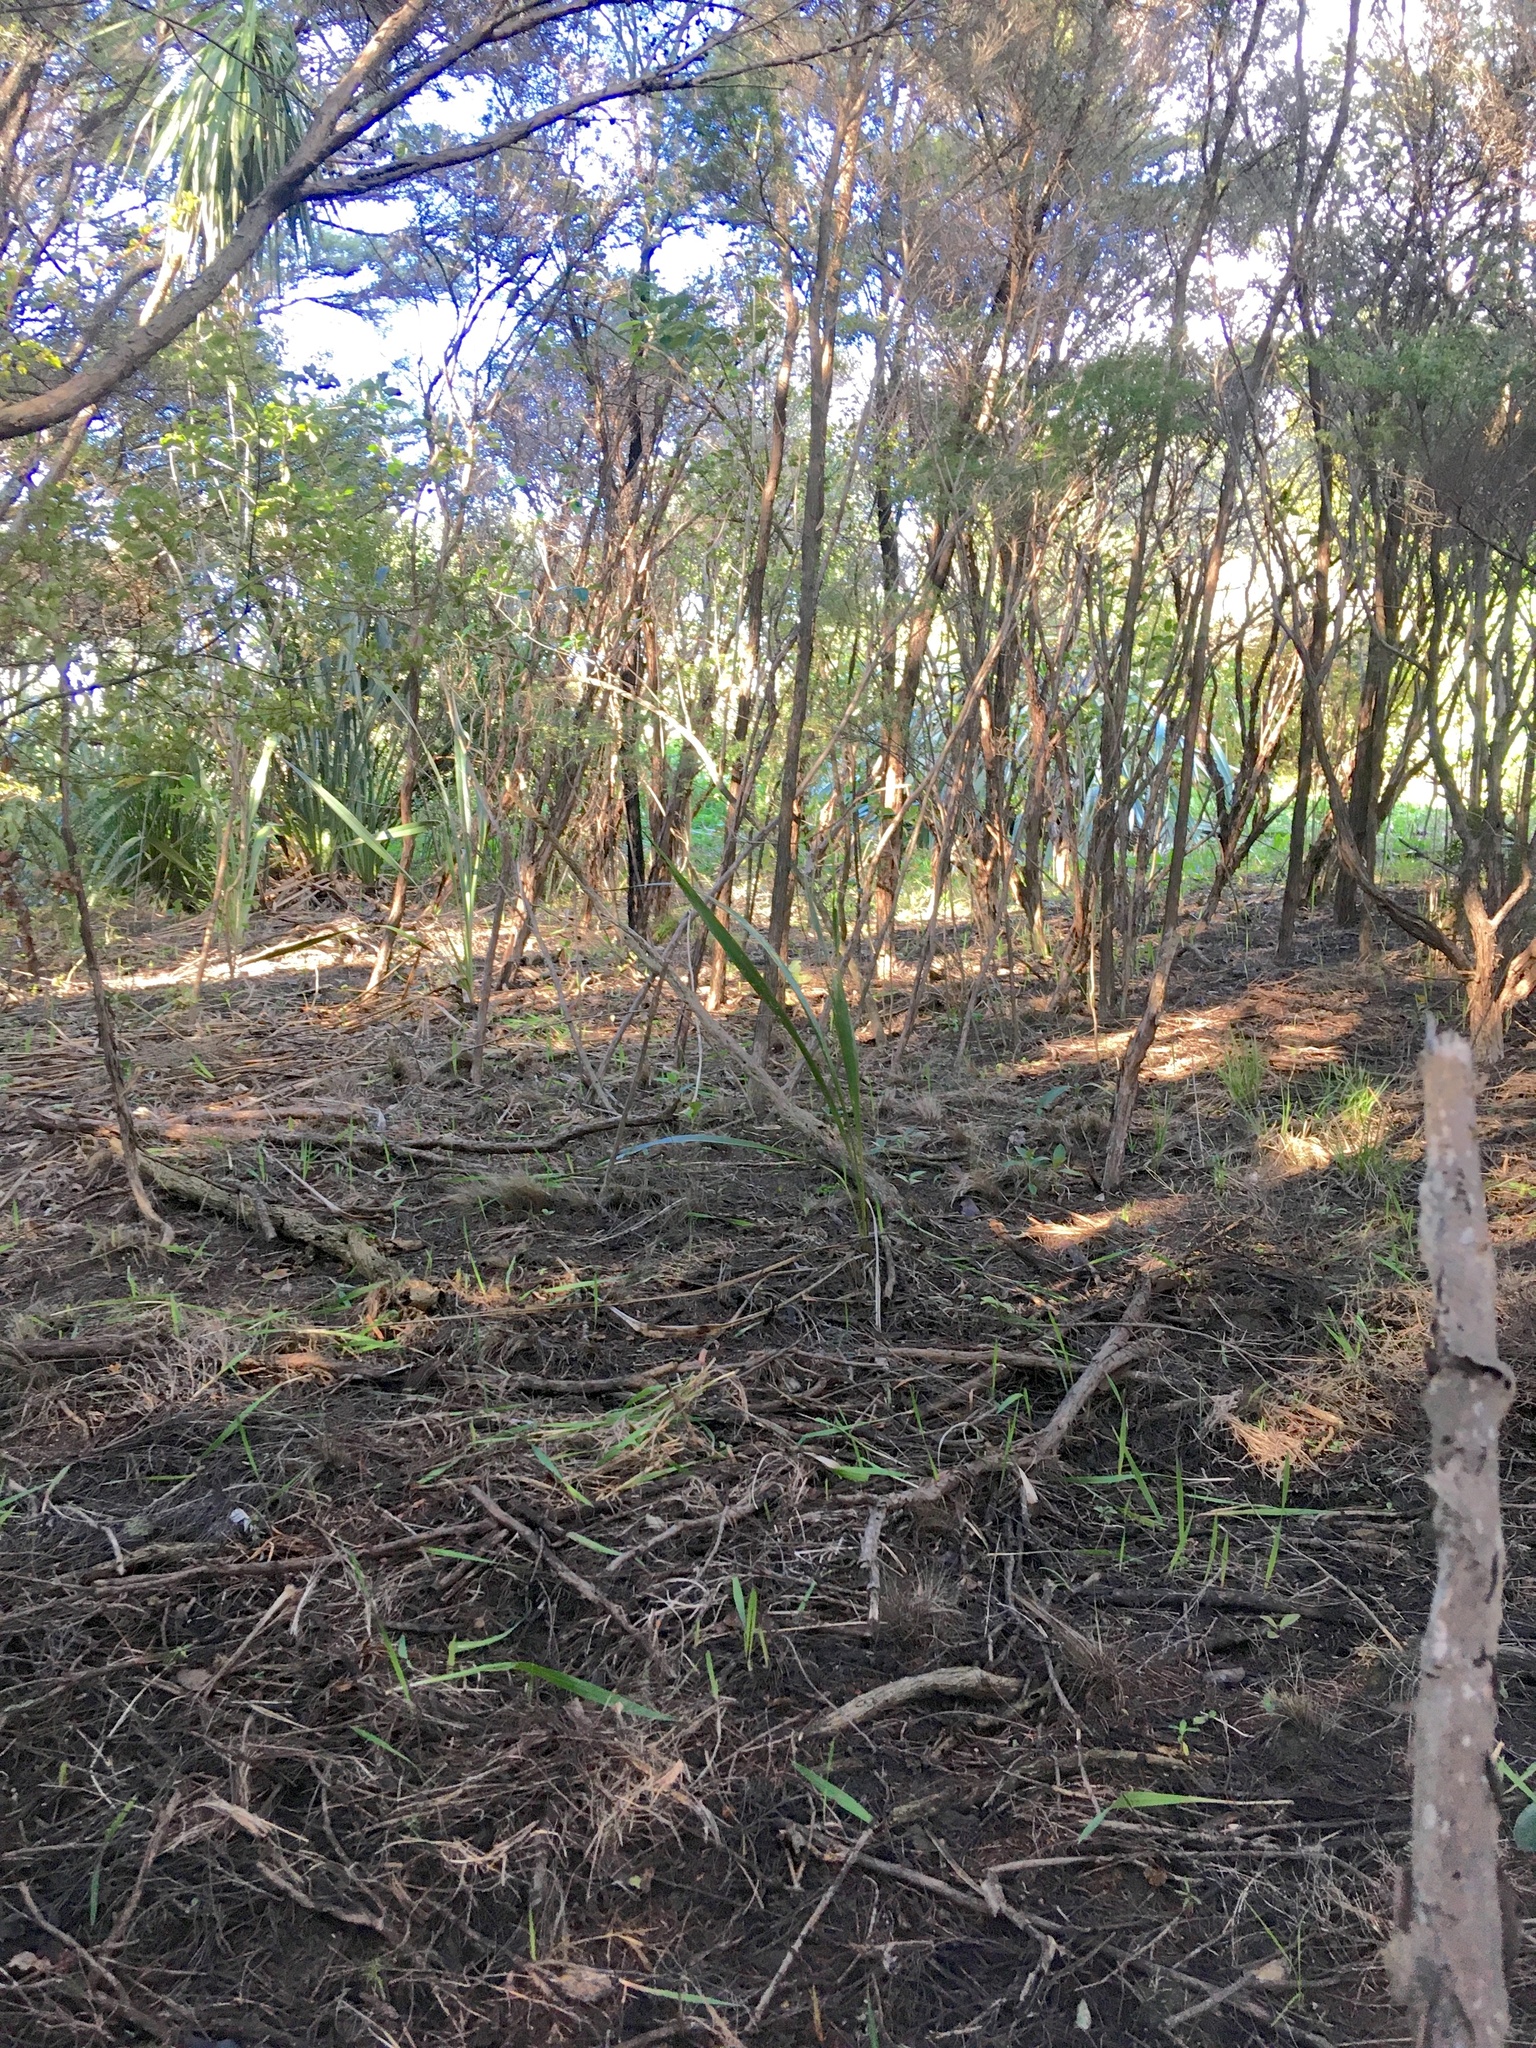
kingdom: Plantae
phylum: Tracheophyta
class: Liliopsida
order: Asparagales
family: Asphodelaceae
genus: Phormium
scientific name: Phormium tenax
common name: New zealand flax
